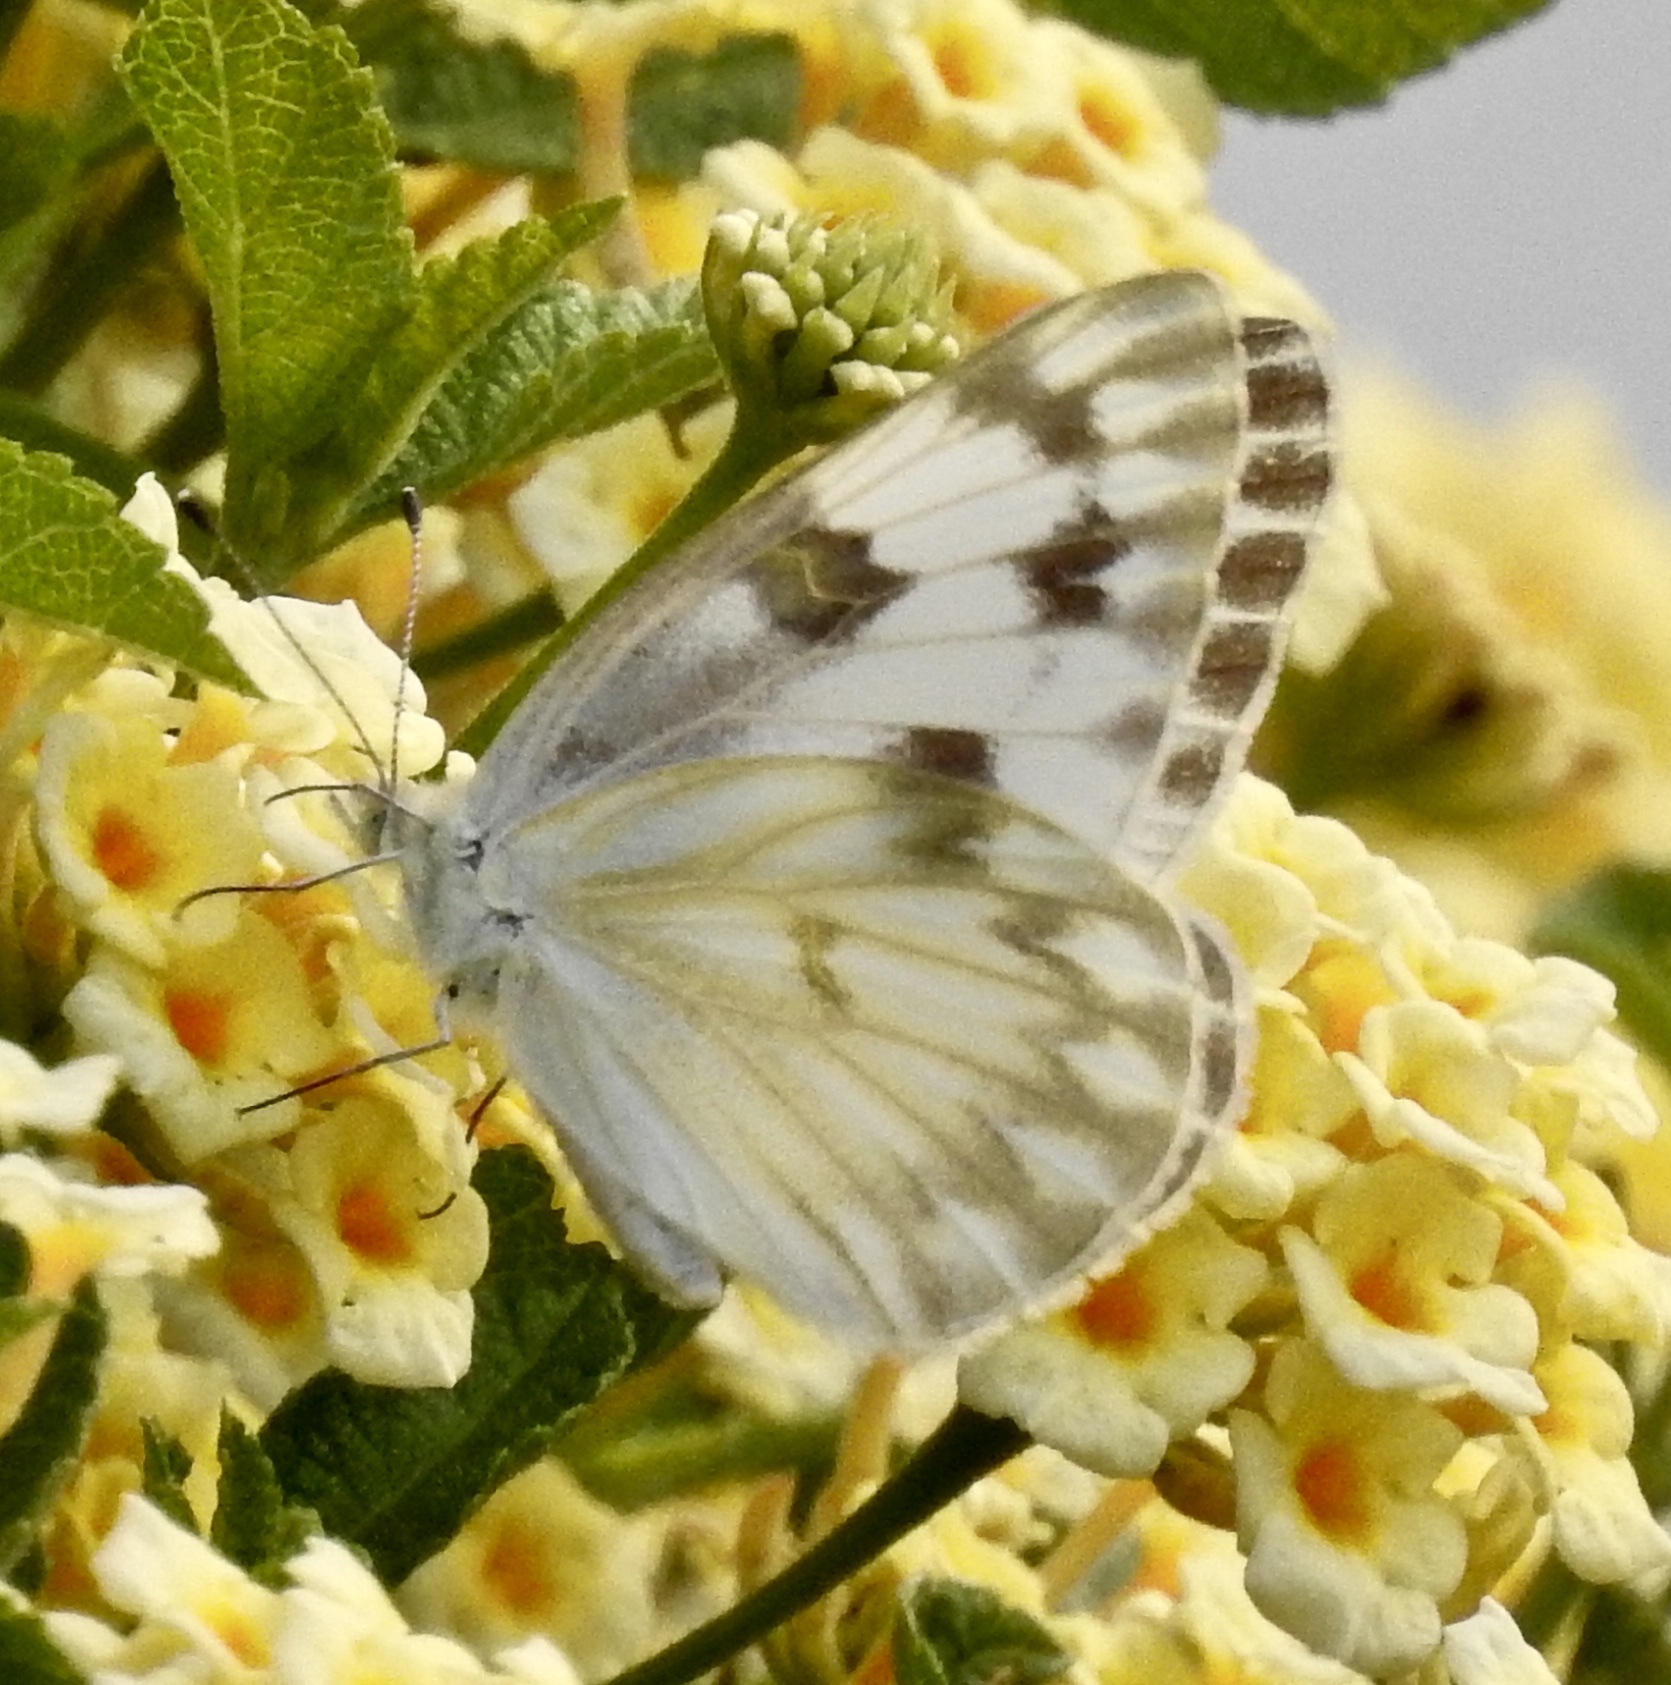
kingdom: Animalia
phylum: Arthropoda
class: Insecta
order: Lepidoptera
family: Pieridae
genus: Pontia
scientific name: Pontia protodice
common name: Checkered white
